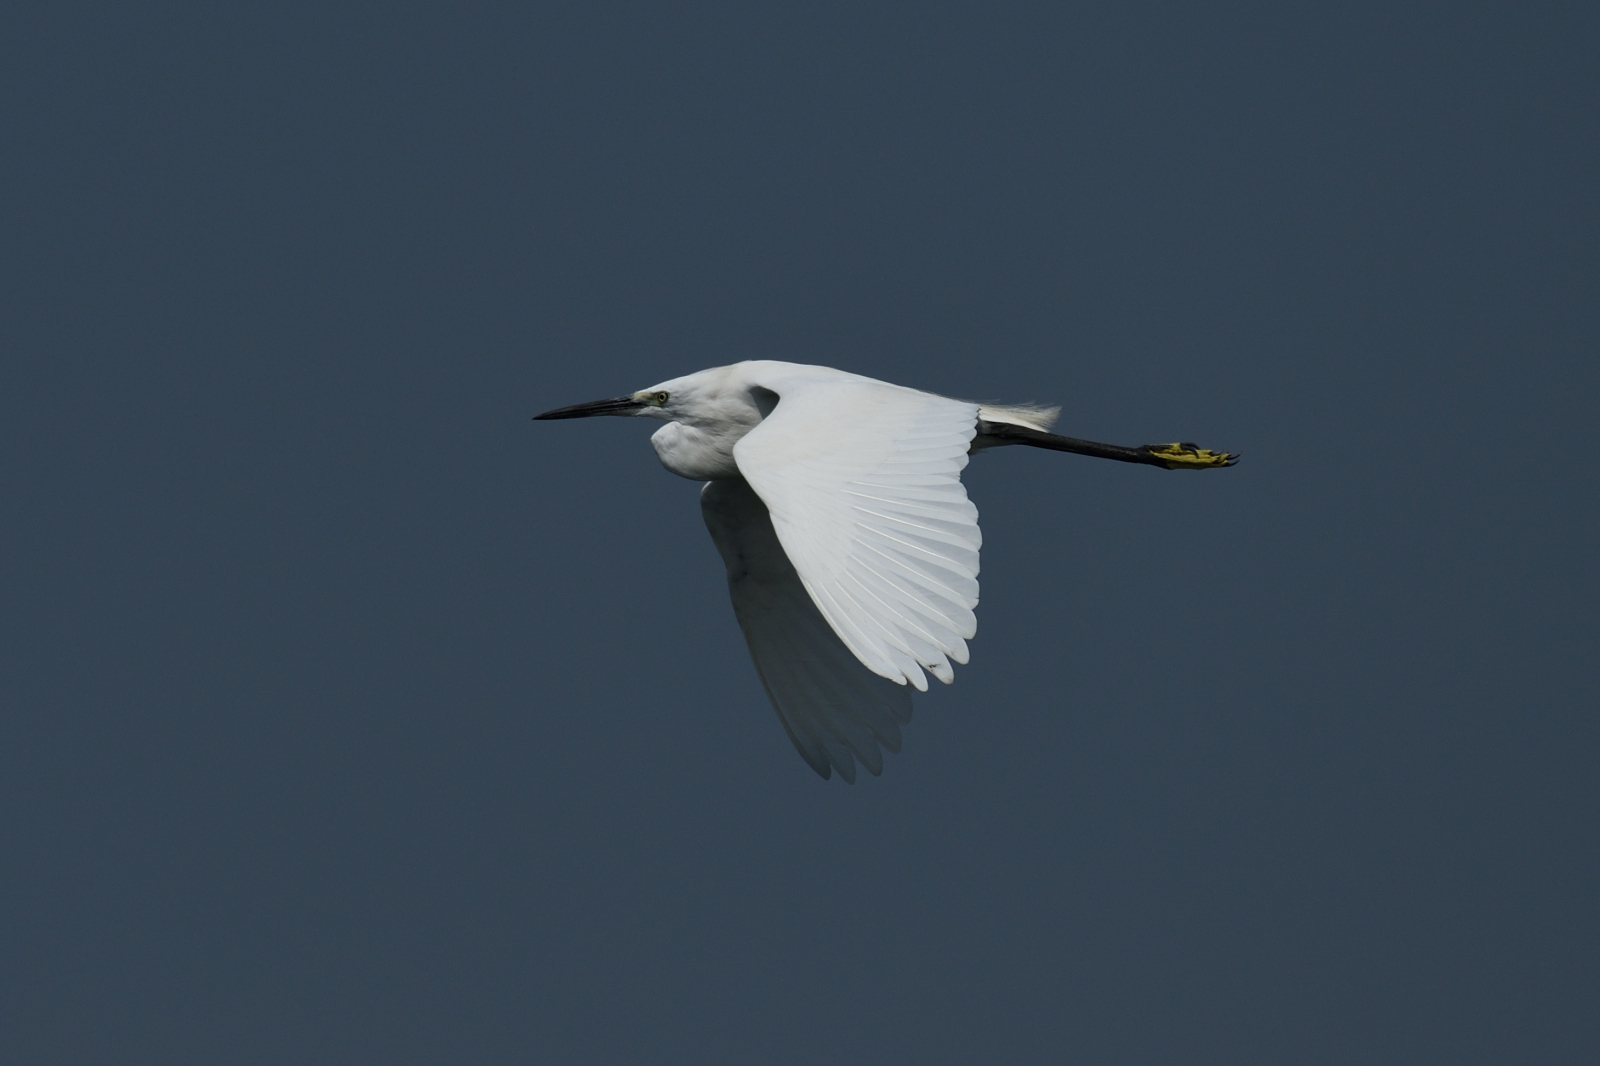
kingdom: Animalia
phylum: Chordata
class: Aves
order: Pelecaniformes
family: Ardeidae
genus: Egretta
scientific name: Egretta garzetta
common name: Little egret
